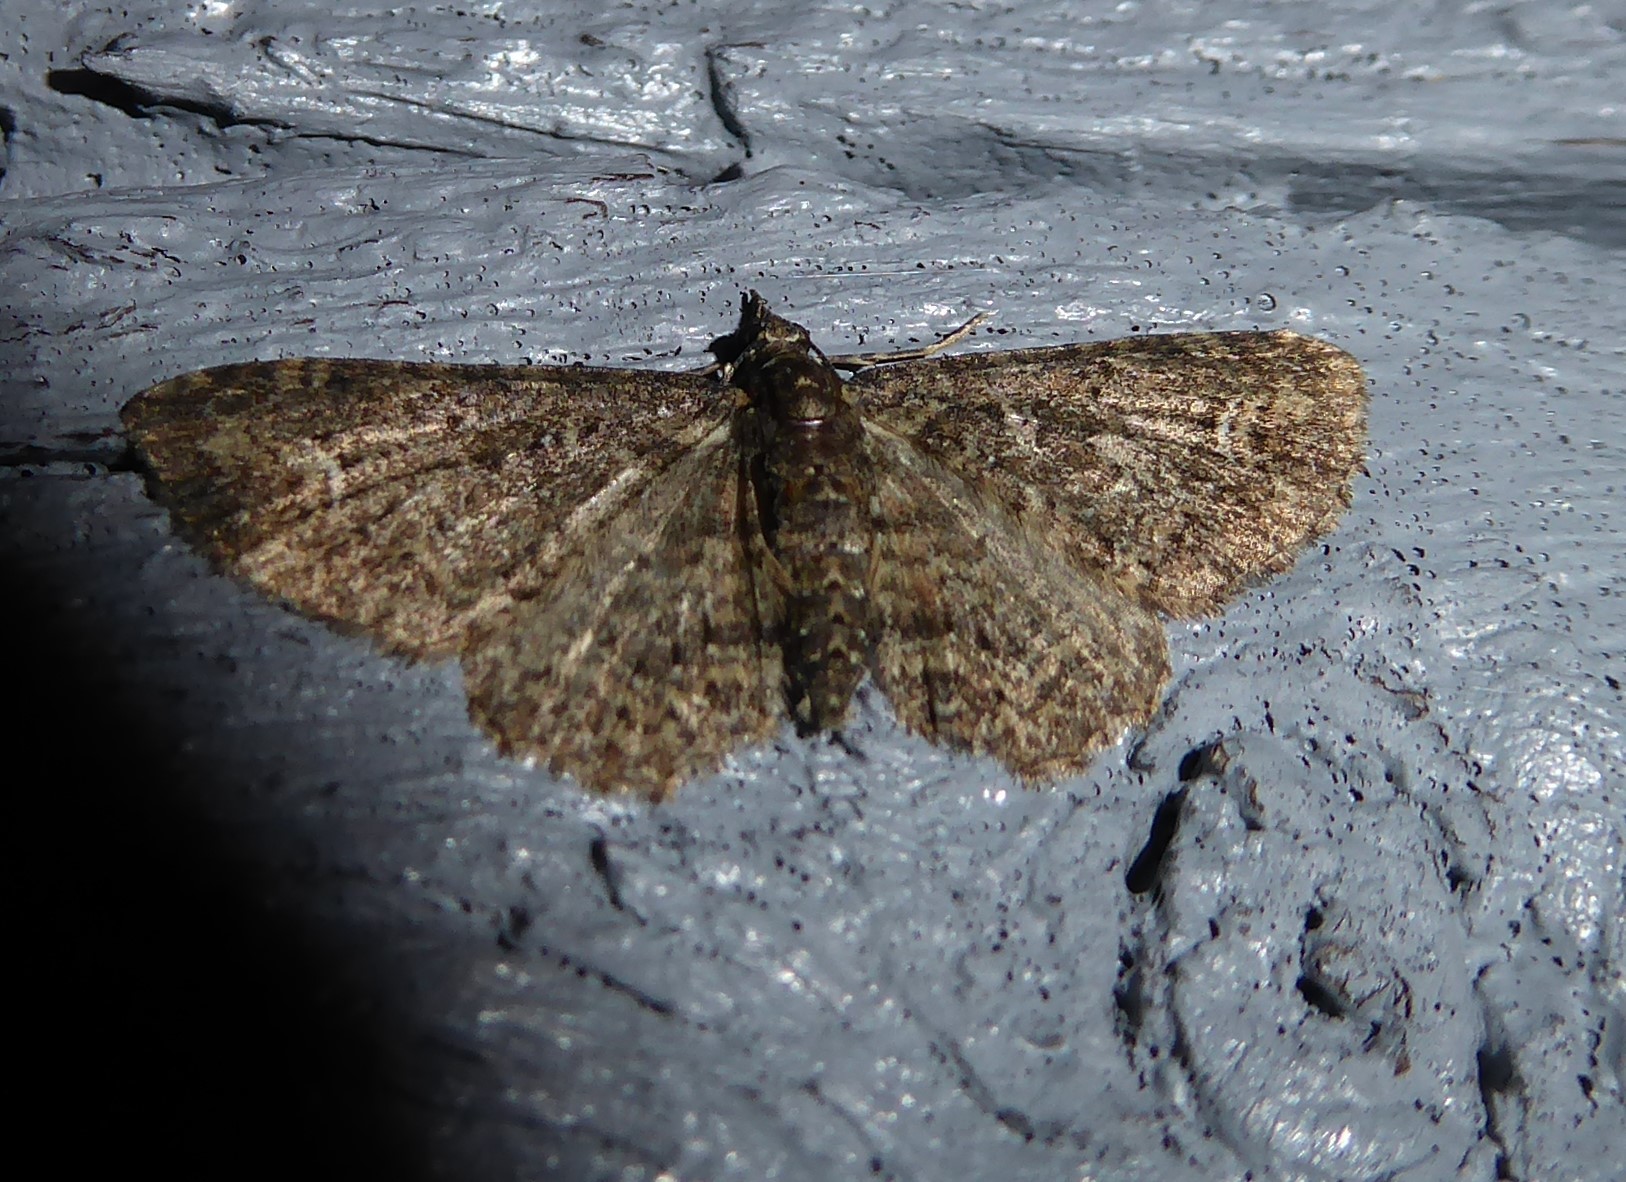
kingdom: Animalia
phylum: Arthropoda
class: Insecta
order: Lepidoptera
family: Geometridae
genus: Pasiphilodes
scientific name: Pasiphilodes testulata
